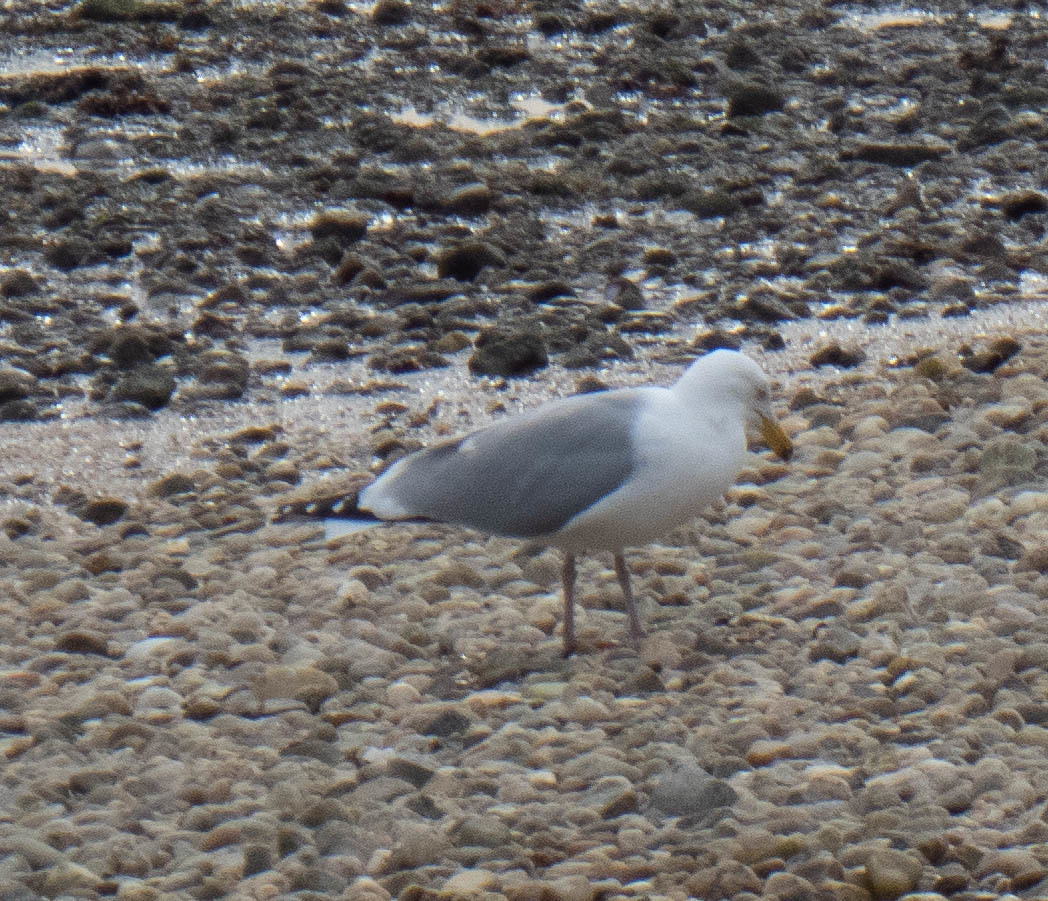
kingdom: Animalia
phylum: Chordata
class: Aves
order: Charadriiformes
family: Laridae
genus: Larus
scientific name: Larus argentatus
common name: Herring gull
